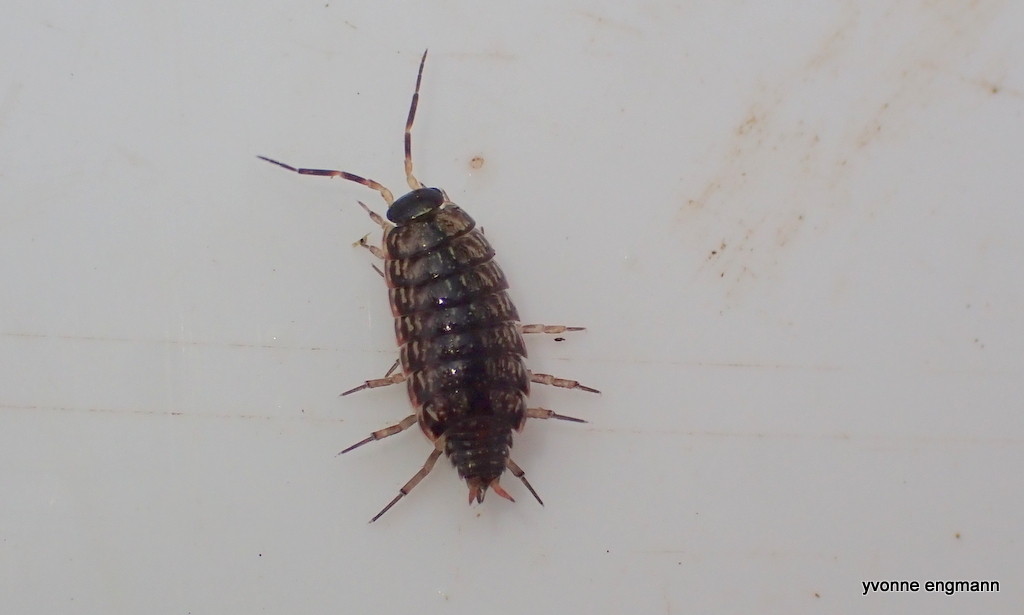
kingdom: Animalia
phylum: Arthropoda
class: Malacostraca
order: Isopoda
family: Philosciidae
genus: Philoscia
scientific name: Philoscia muscorum
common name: Common striped woodlouse
